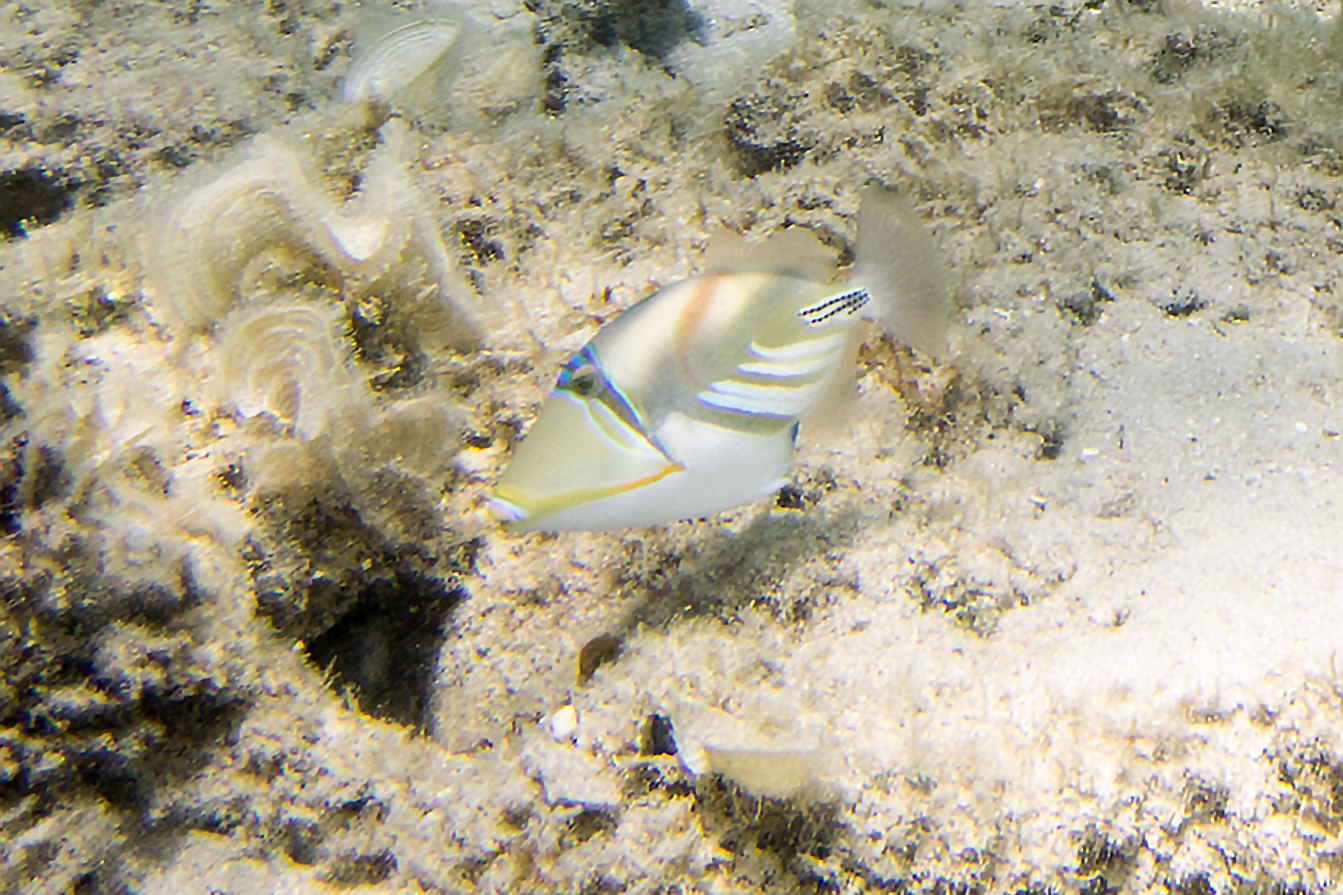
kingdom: Animalia
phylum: Chordata
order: Tetraodontiformes
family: Balistidae
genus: Rhinecanthus
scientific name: Rhinecanthus aculeatus
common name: White-banded triggerfish
